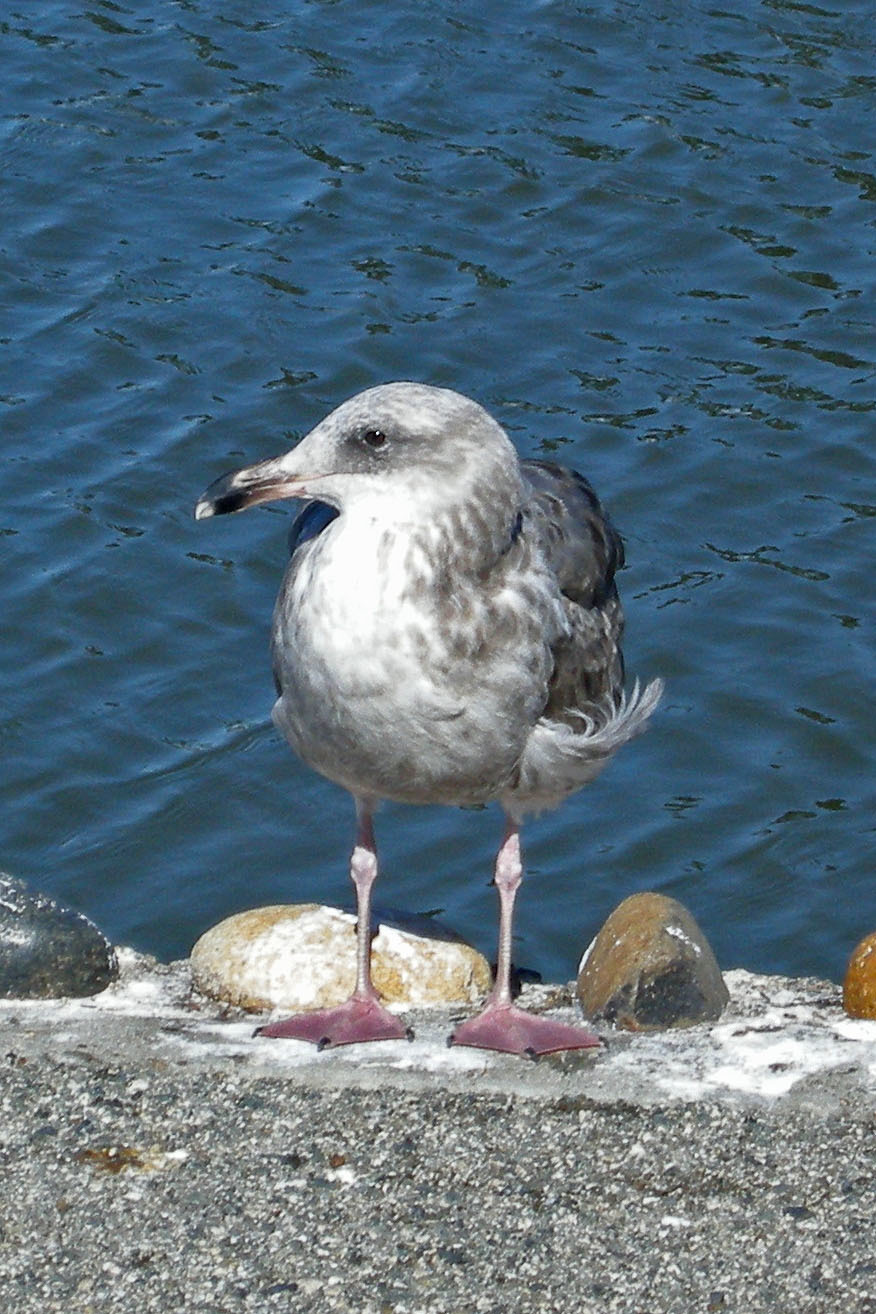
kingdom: Animalia
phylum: Chordata
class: Aves
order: Charadriiformes
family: Laridae
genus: Larus
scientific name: Larus occidentalis
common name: Western gull
